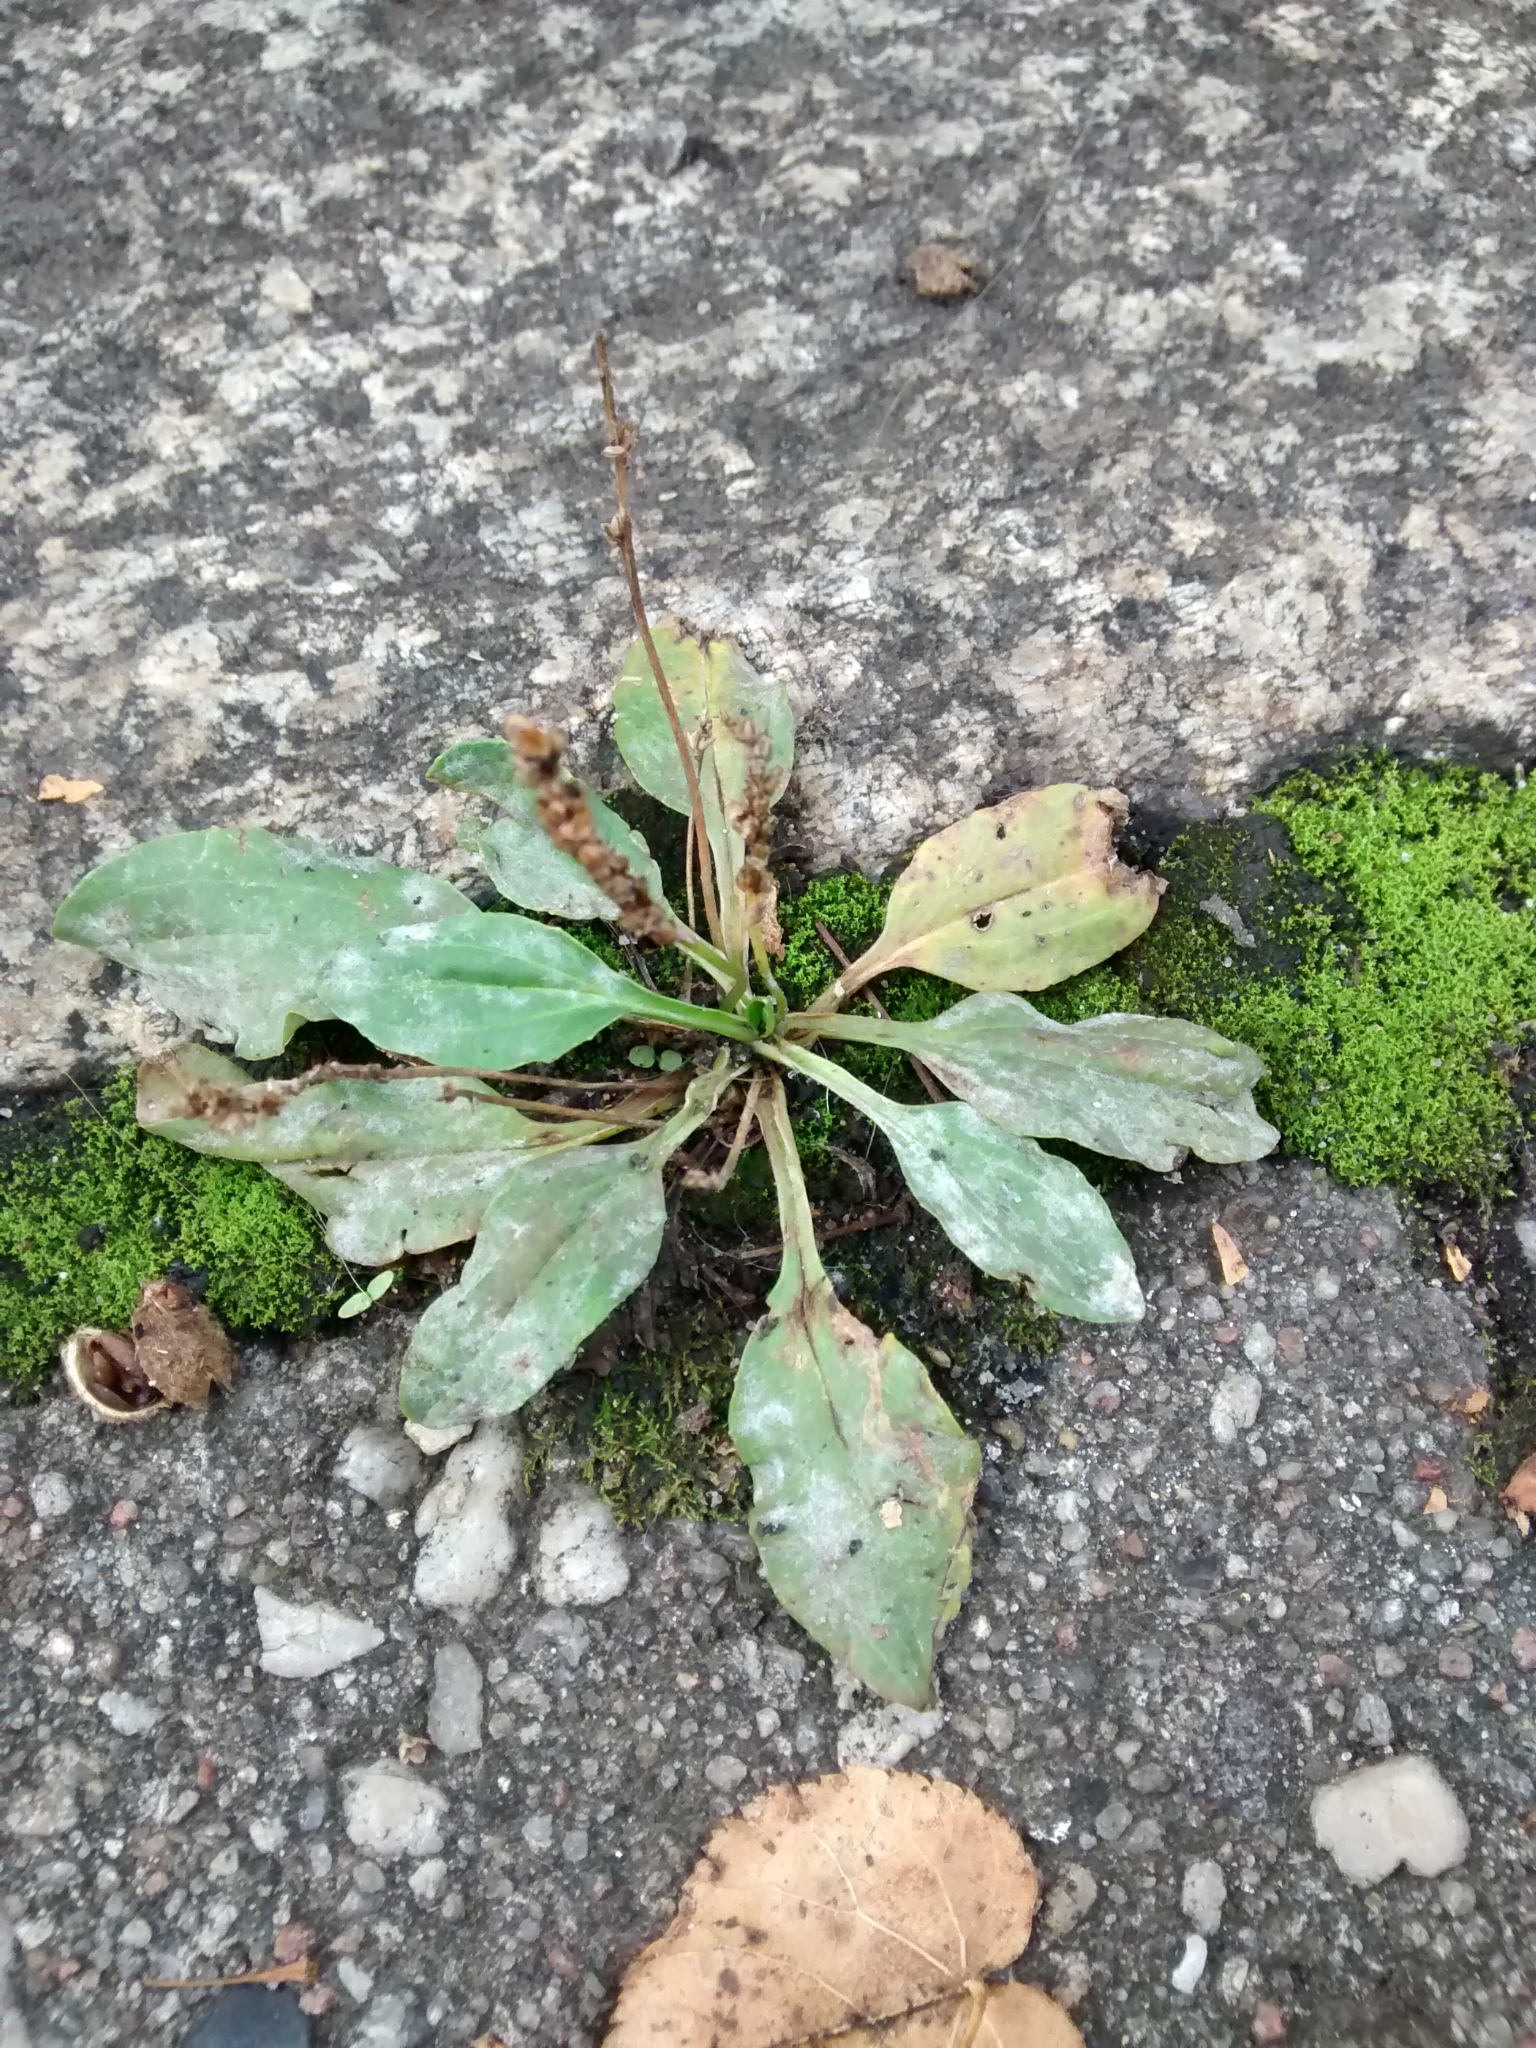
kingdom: Plantae
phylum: Tracheophyta
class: Magnoliopsida
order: Lamiales
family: Plantaginaceae
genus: Plantago
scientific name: Plantago major
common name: Common plantain
